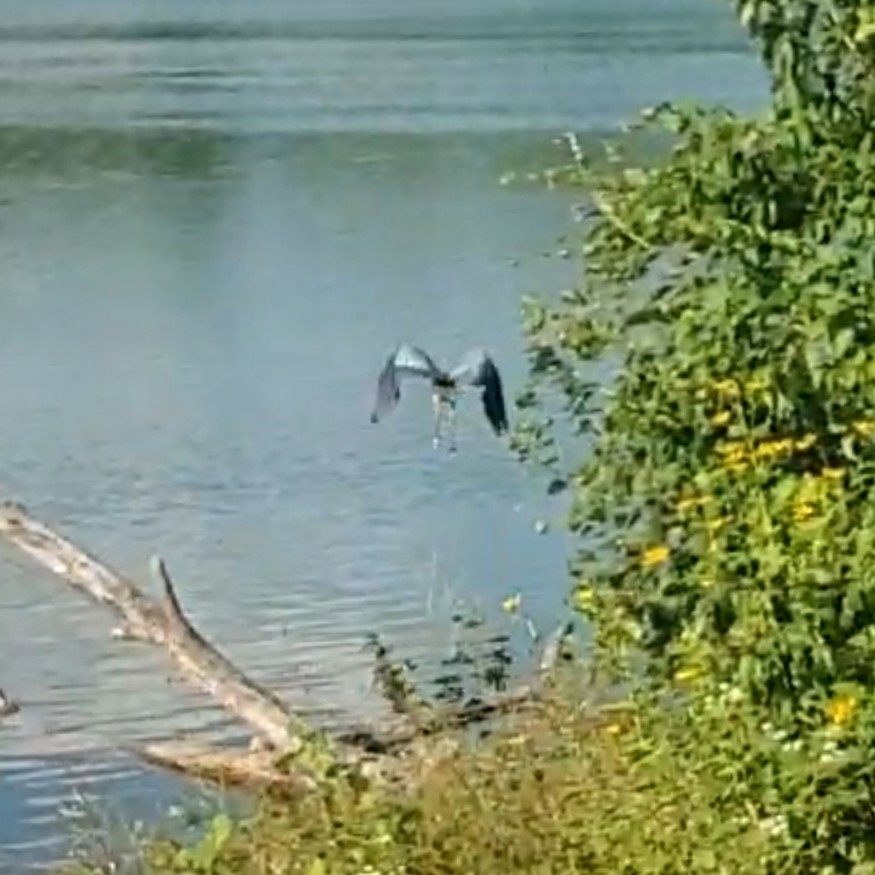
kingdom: Animalia
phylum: Chordata
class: Aves
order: Pelecaniformes
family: Ardeidae
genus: Ardea
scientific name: Ardea herodias
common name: Great blue heron
